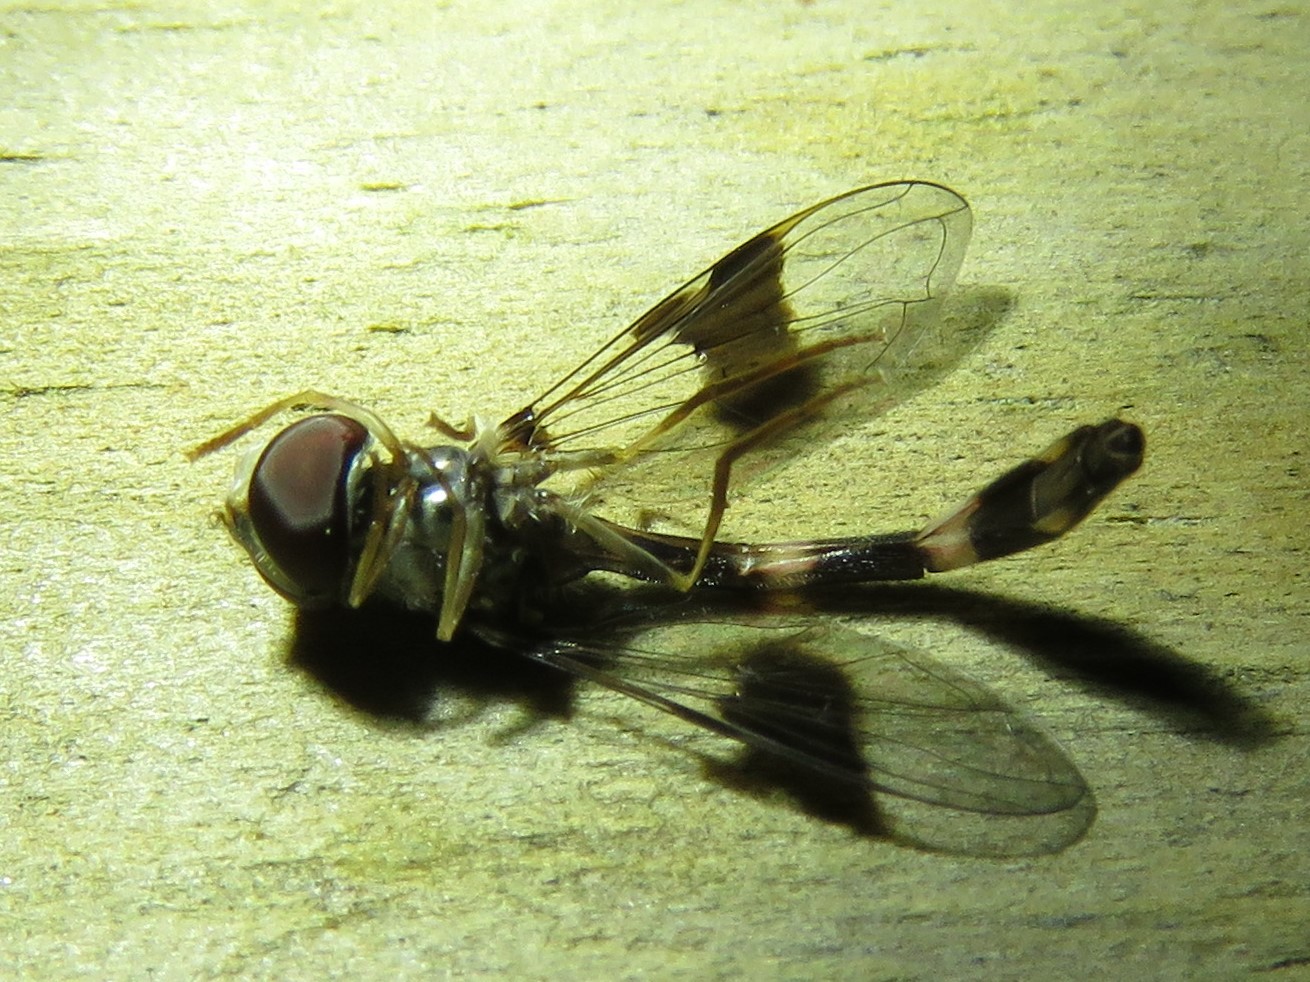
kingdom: Animalia
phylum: Arthropoda
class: Insecta
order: Diptera
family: Syrphidae
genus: Hypocritanus
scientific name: Hypocritanus fascipennis
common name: Eastern band-winged hover fly
